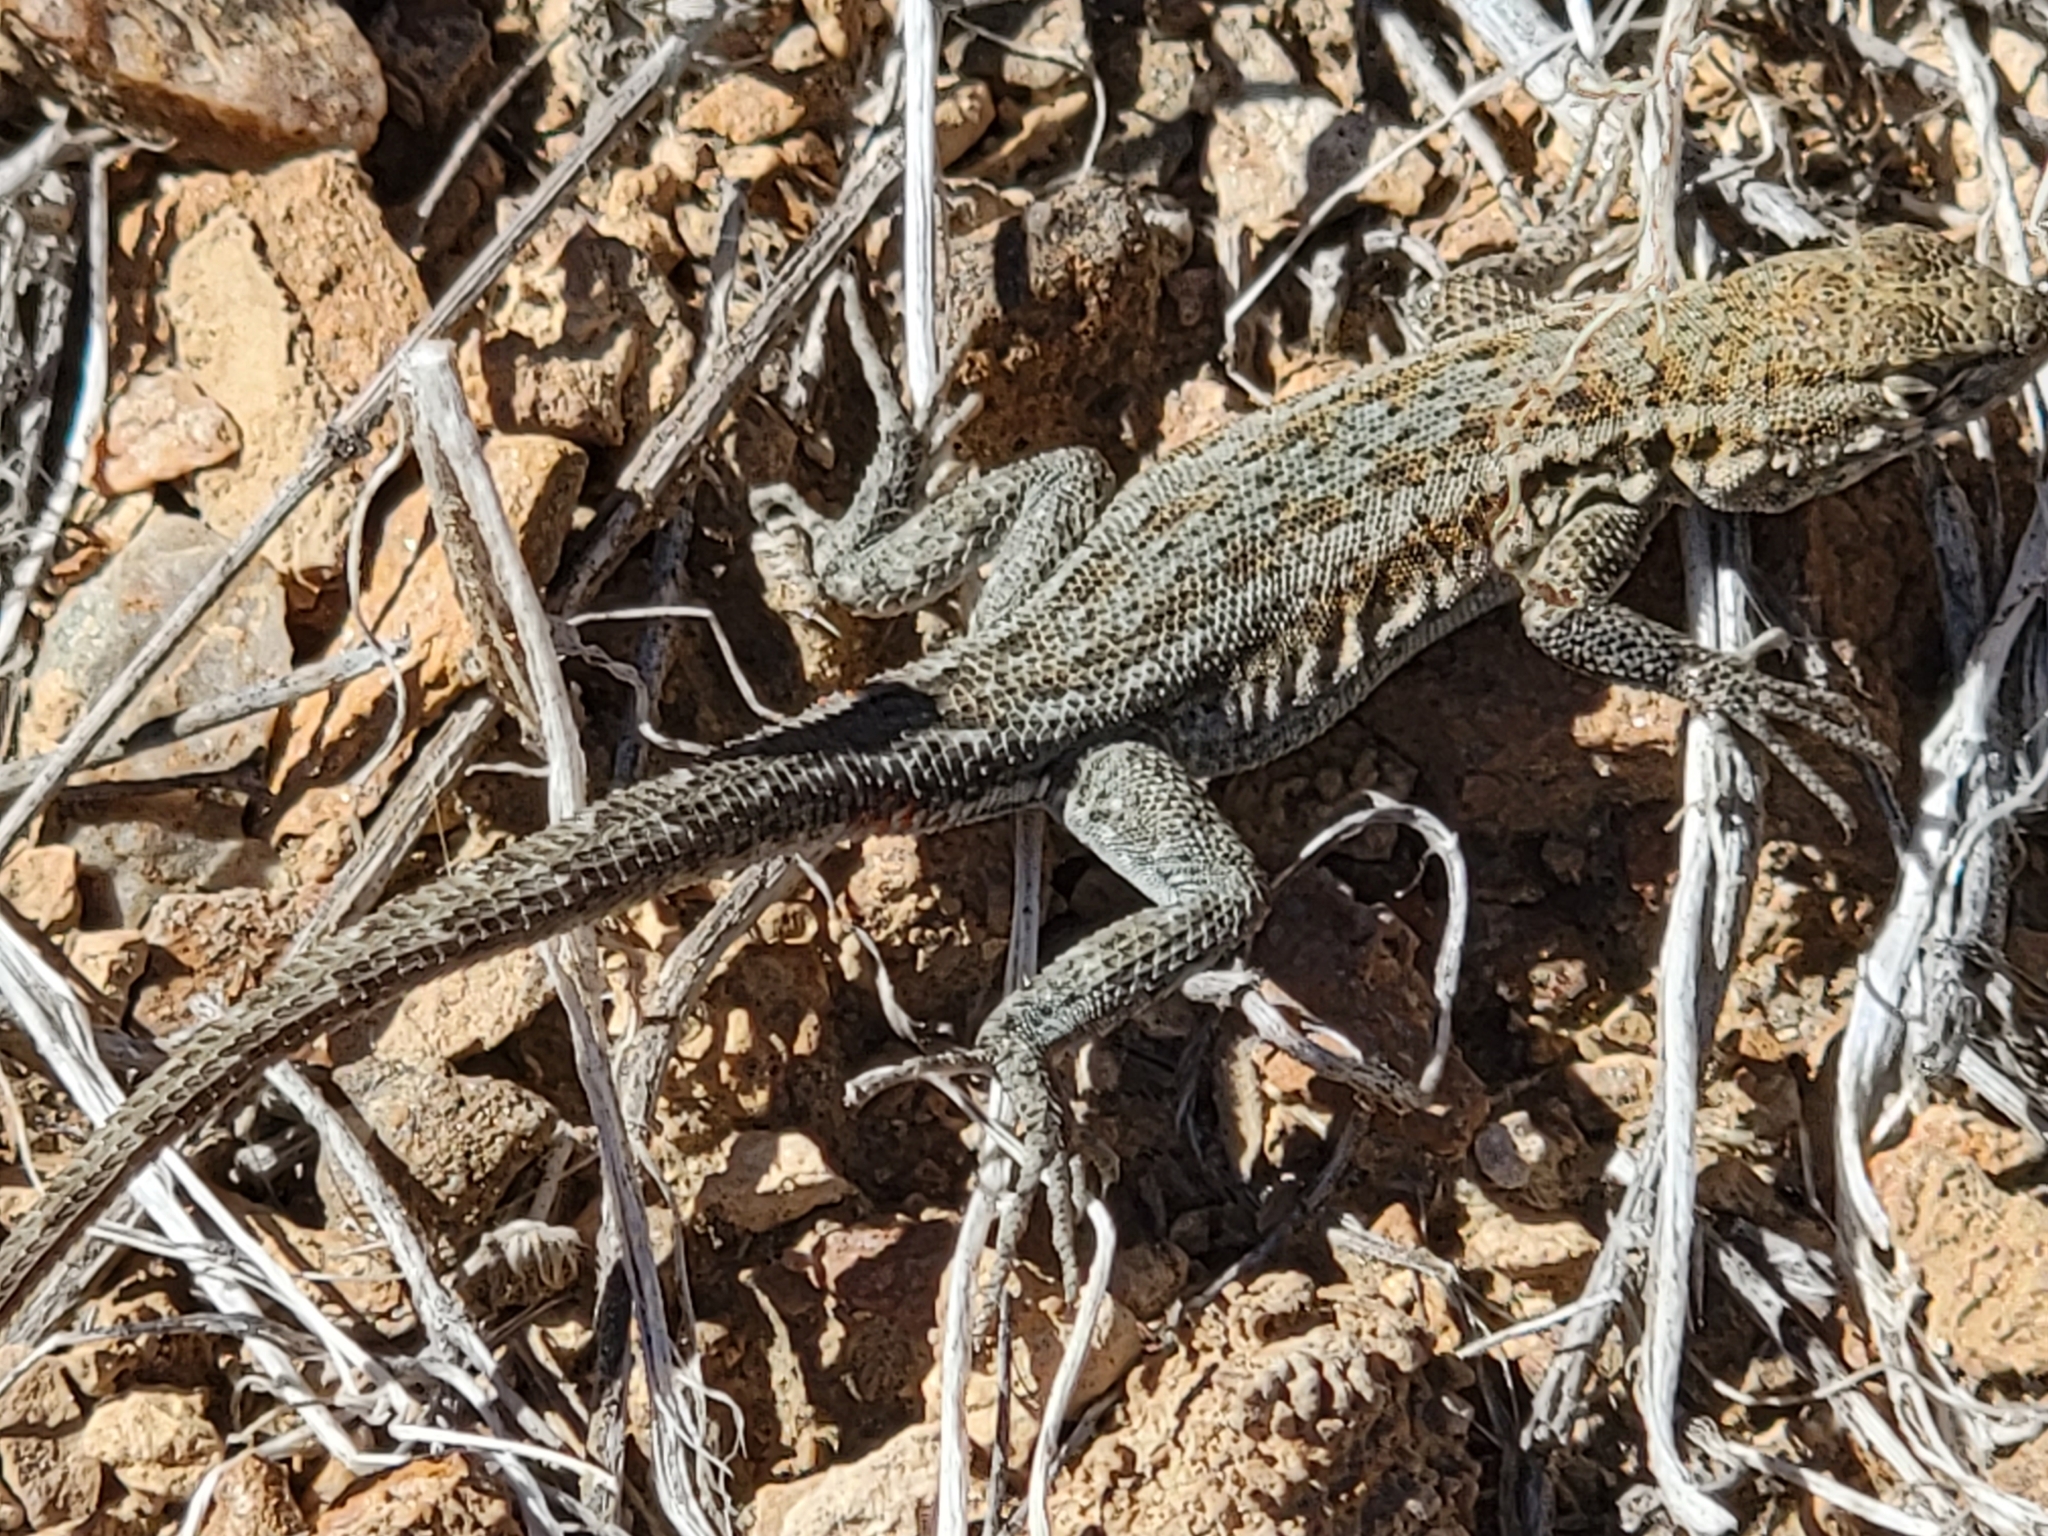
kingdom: Animalia
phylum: Chordata
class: Squamata
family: Phrynosomatidae
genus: Uta
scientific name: Uta stansburiana
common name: Side-blotched lizard
